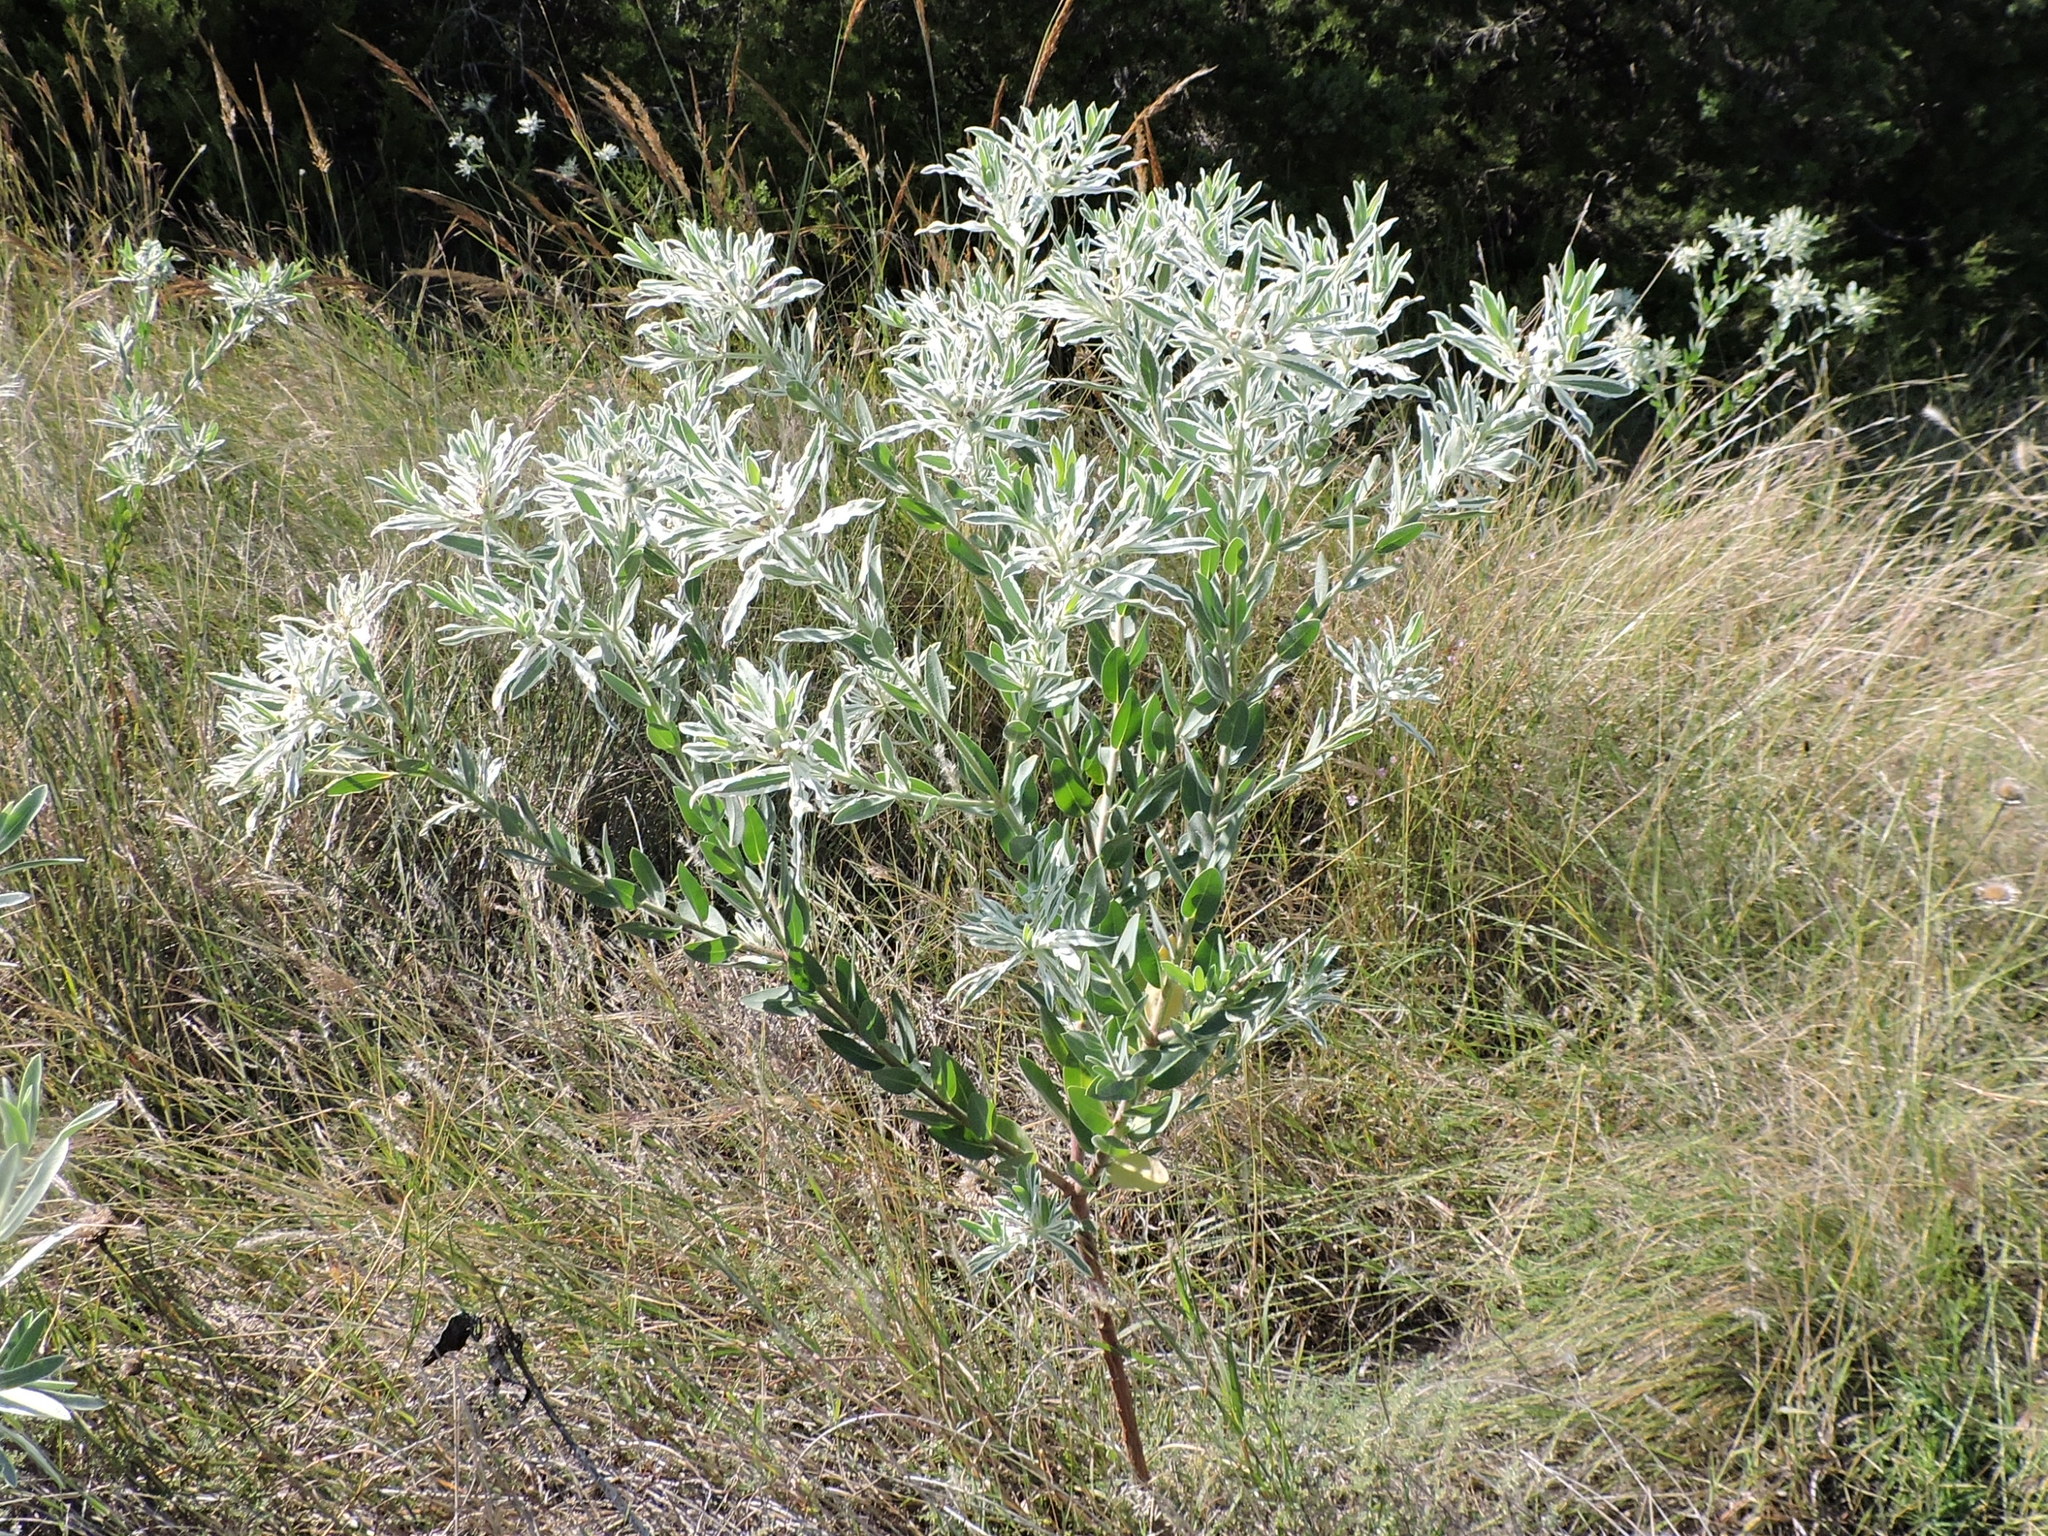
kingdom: Plantae
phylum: Tracheophyta
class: Magnoliopsida
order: Malpighiales
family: Euphorbiaceae
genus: Euphorbia
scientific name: Euphorbia bicolor
